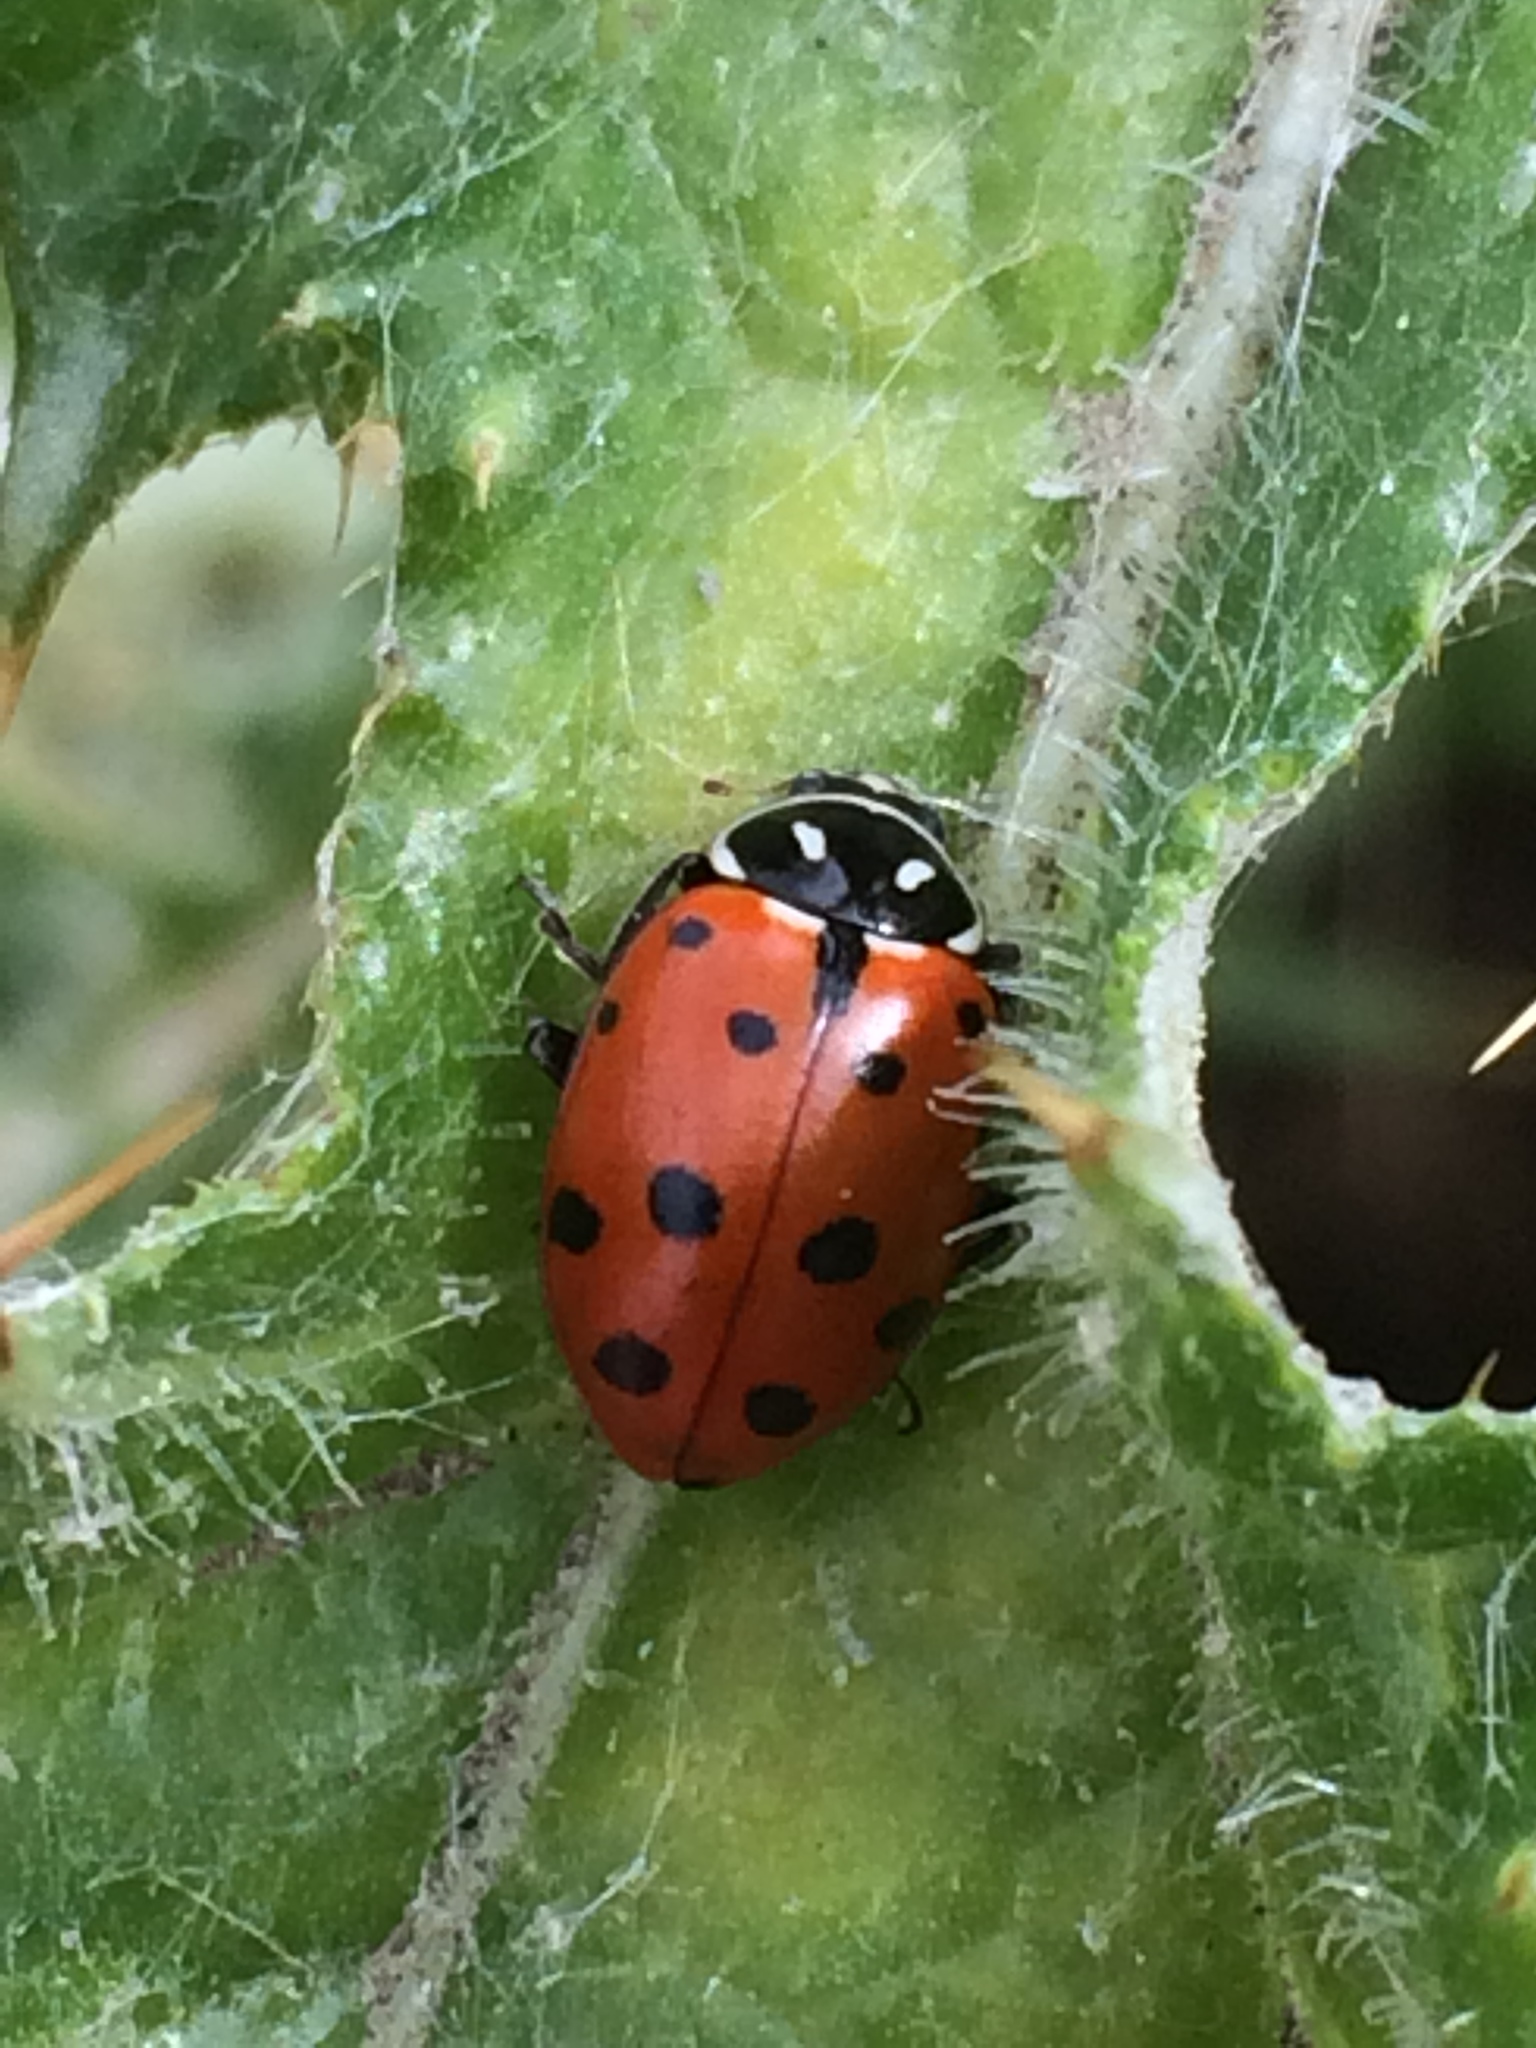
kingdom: Animalia
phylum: Arthropoda
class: Insecta
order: Coleoptera
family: Coccinellidae
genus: Hippodamia
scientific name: Hippodamia convergens
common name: Convergent lady beetle
